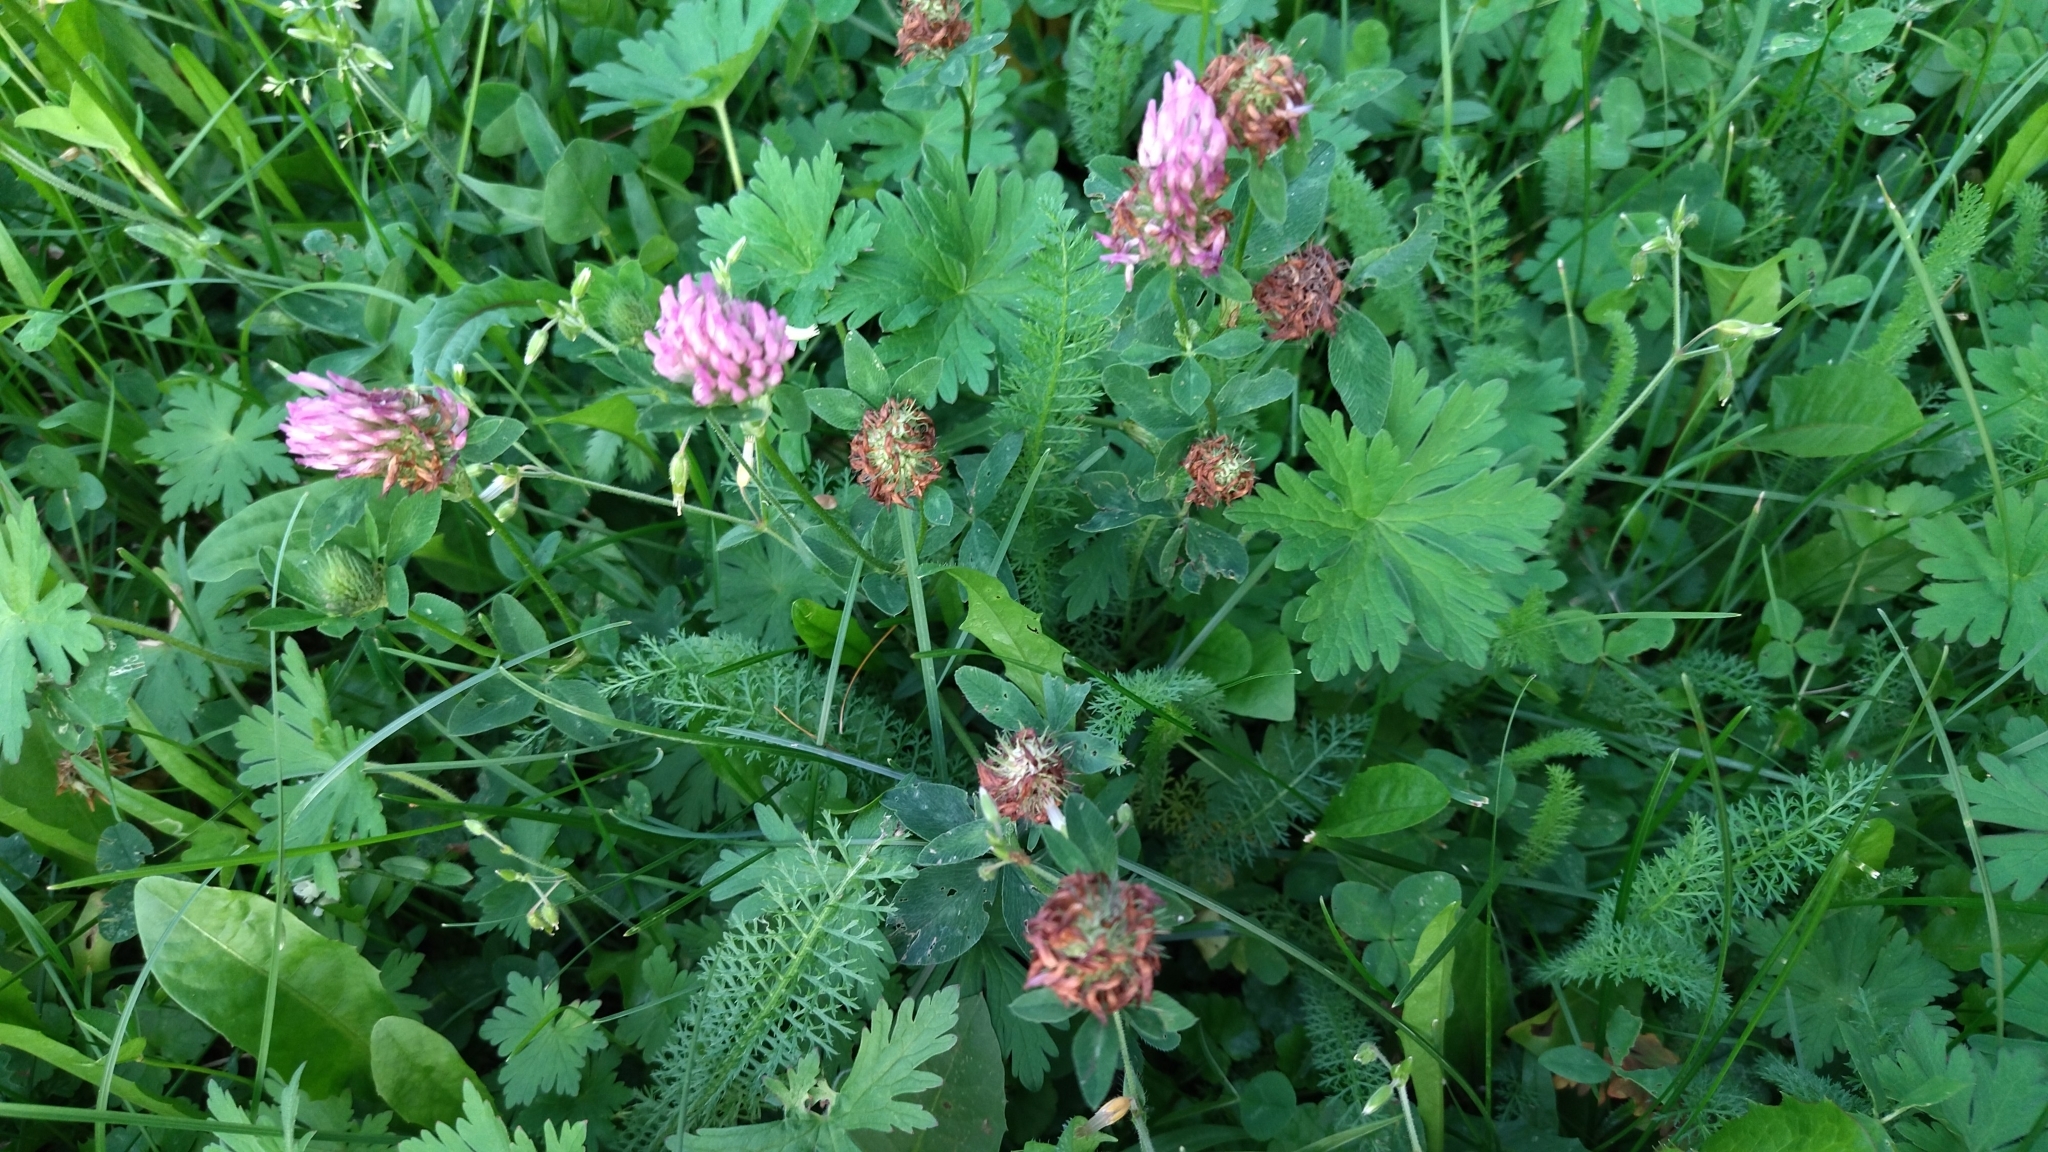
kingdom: Plantae
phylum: Tracheophyta
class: Magnoliopsida
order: Fabales
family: Fabaceae
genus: Trifolium
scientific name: Trifolium pratense
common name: Red clover
